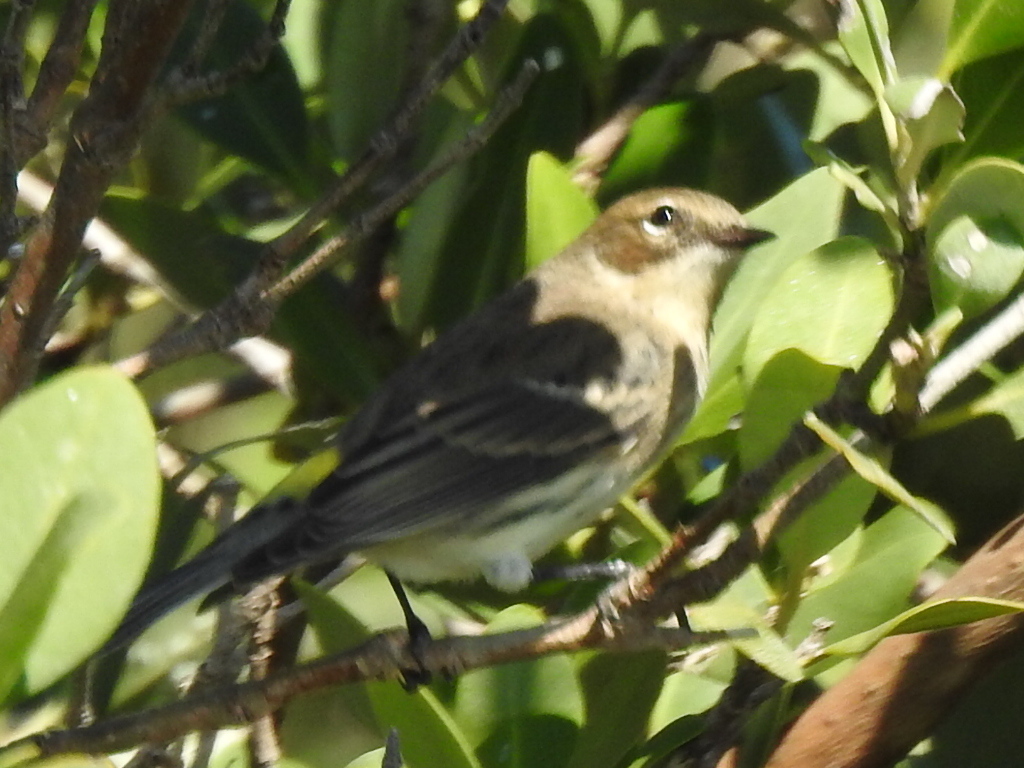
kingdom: Animalia
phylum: Chordata
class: Aves
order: Passeriformes
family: Parulidae
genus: Setophaga
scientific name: Setophaga coronata
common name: Myrtle warbler
